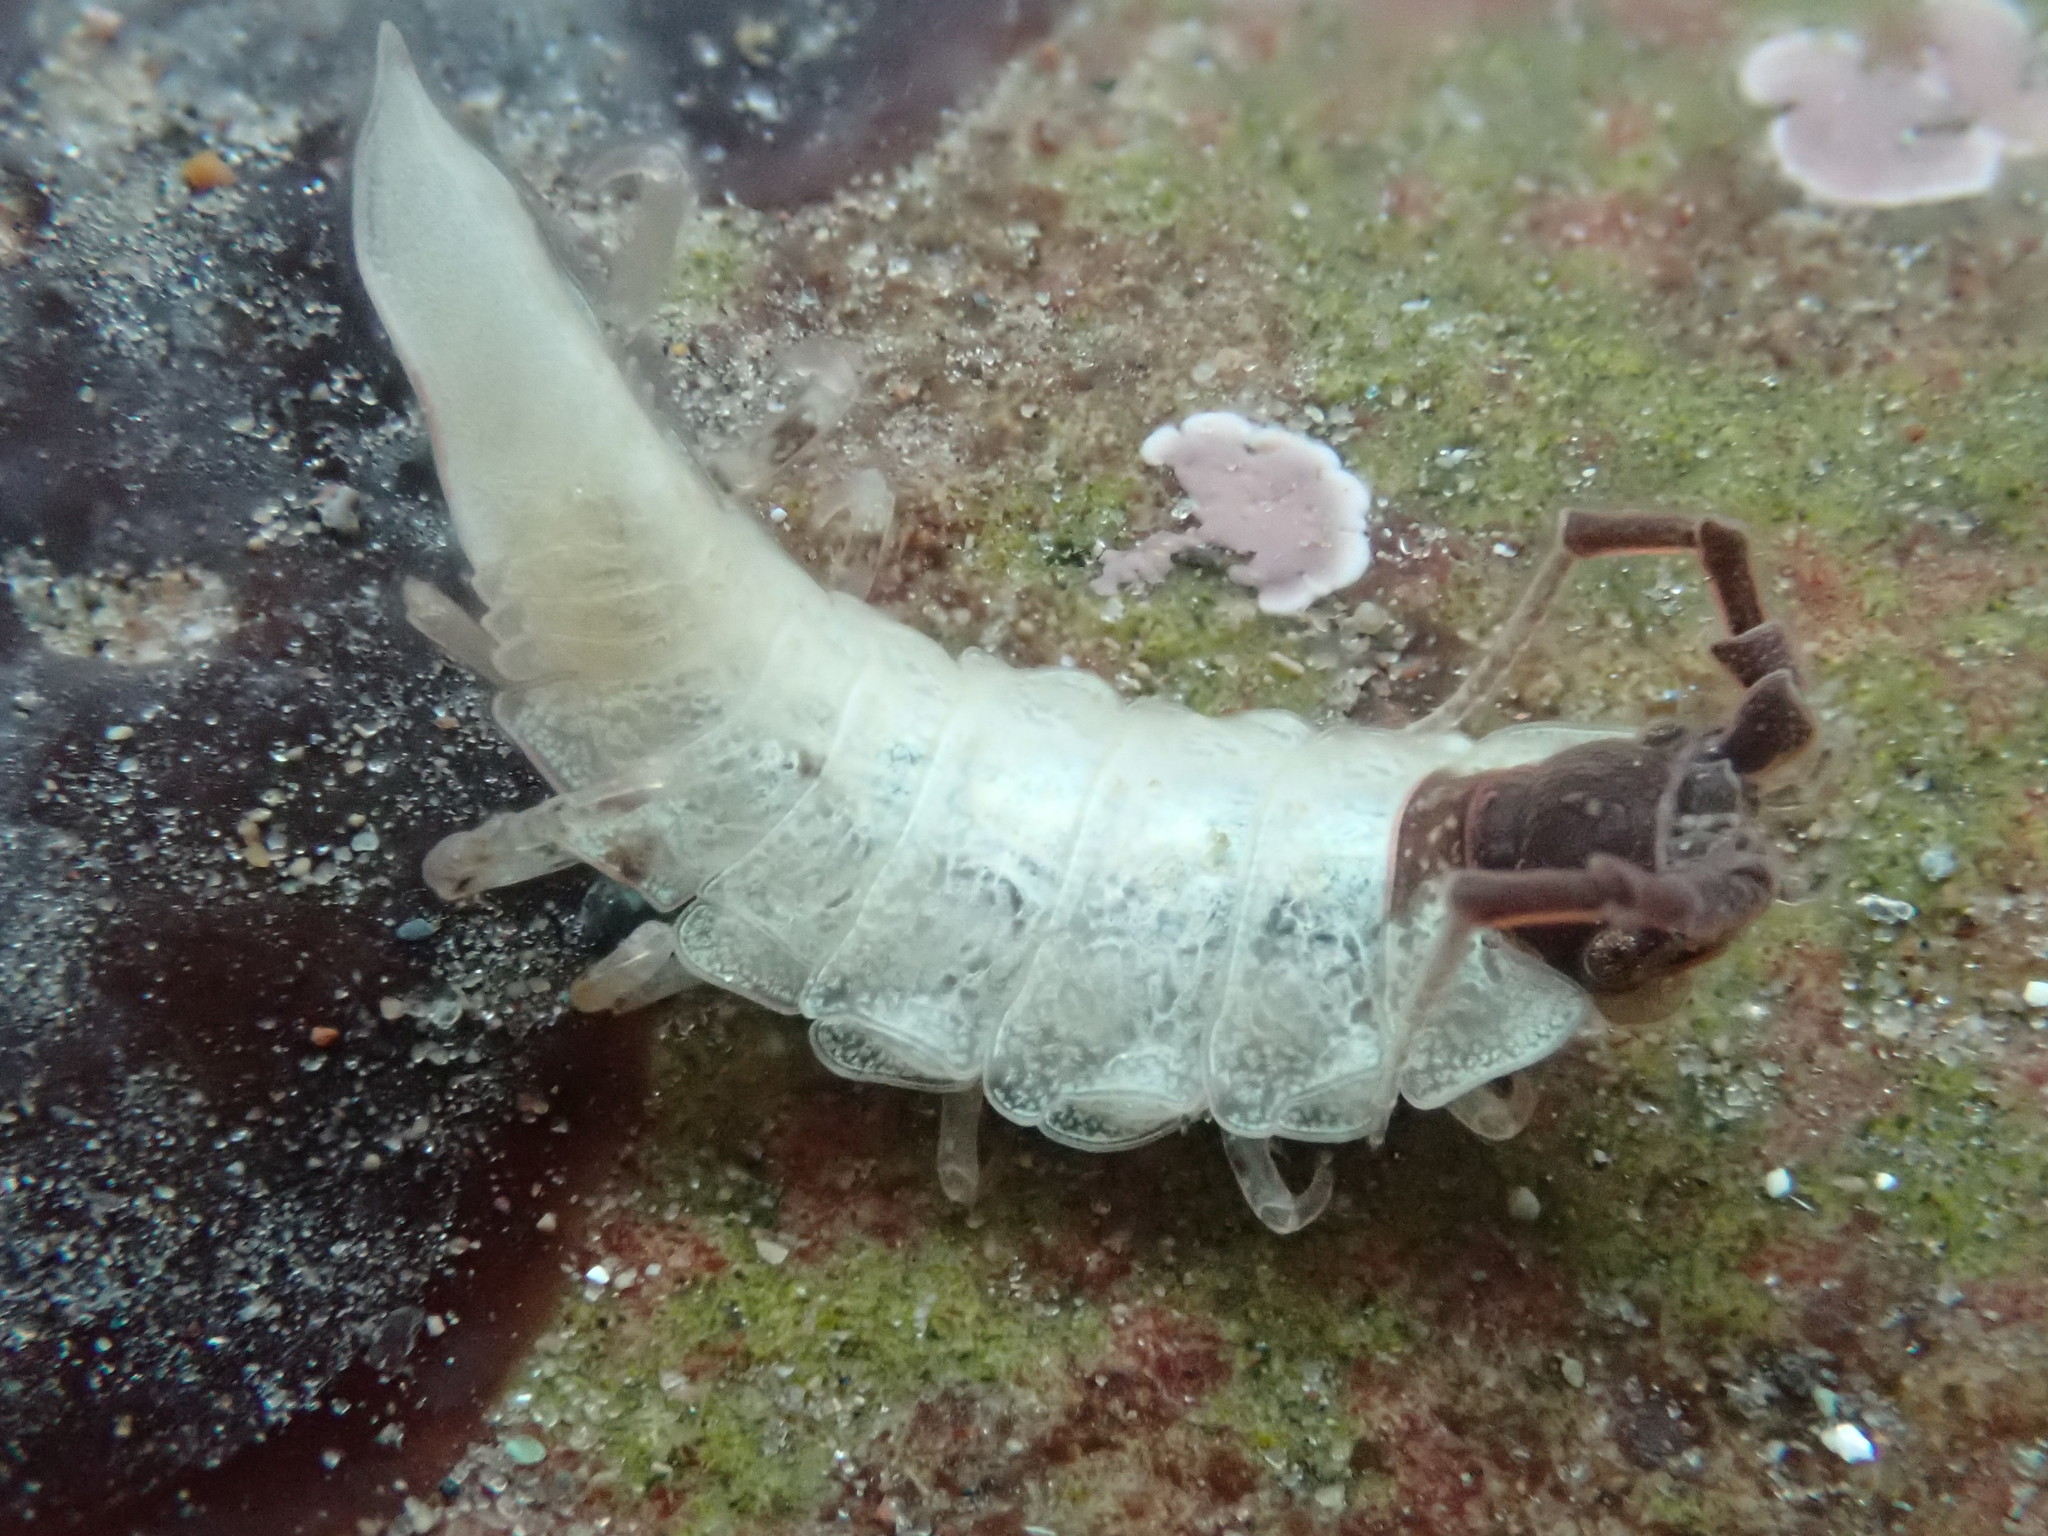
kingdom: Animalia
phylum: Arthropoda
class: Malacostraca
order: Isopoda
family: Idoteidae
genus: Idotea
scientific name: Idotea phosphorea
